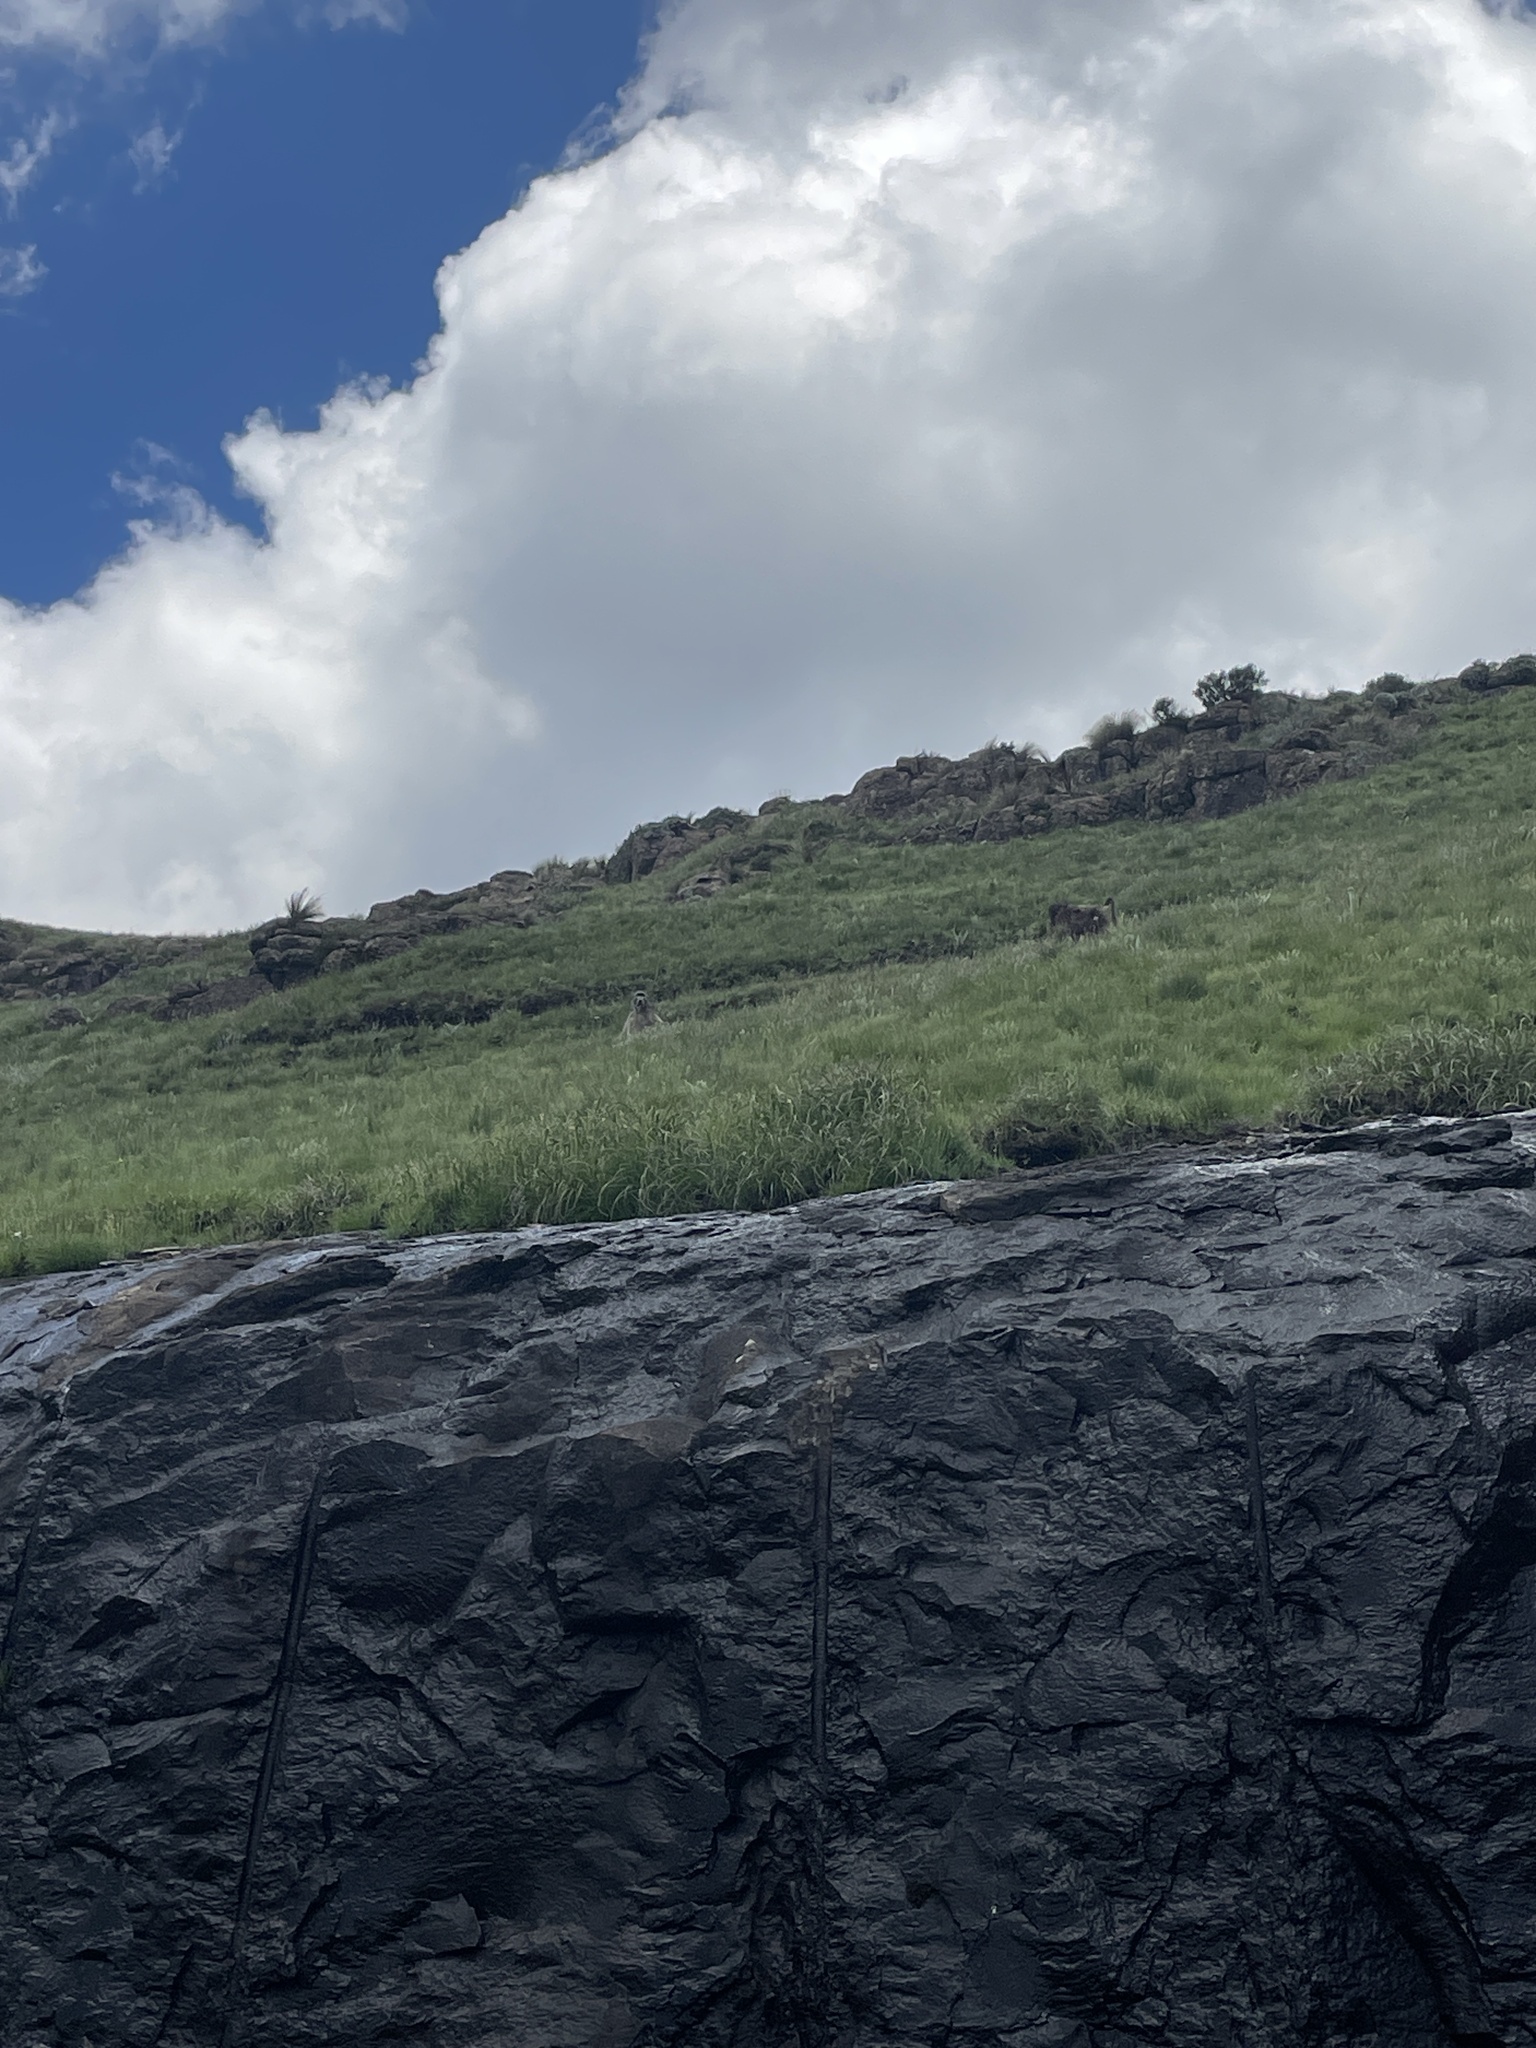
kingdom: Animalia
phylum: Chordata
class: Mammalia
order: Primates
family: Cercopithecidae
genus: Papio
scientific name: Papio ursinus
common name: Chacma baboon
